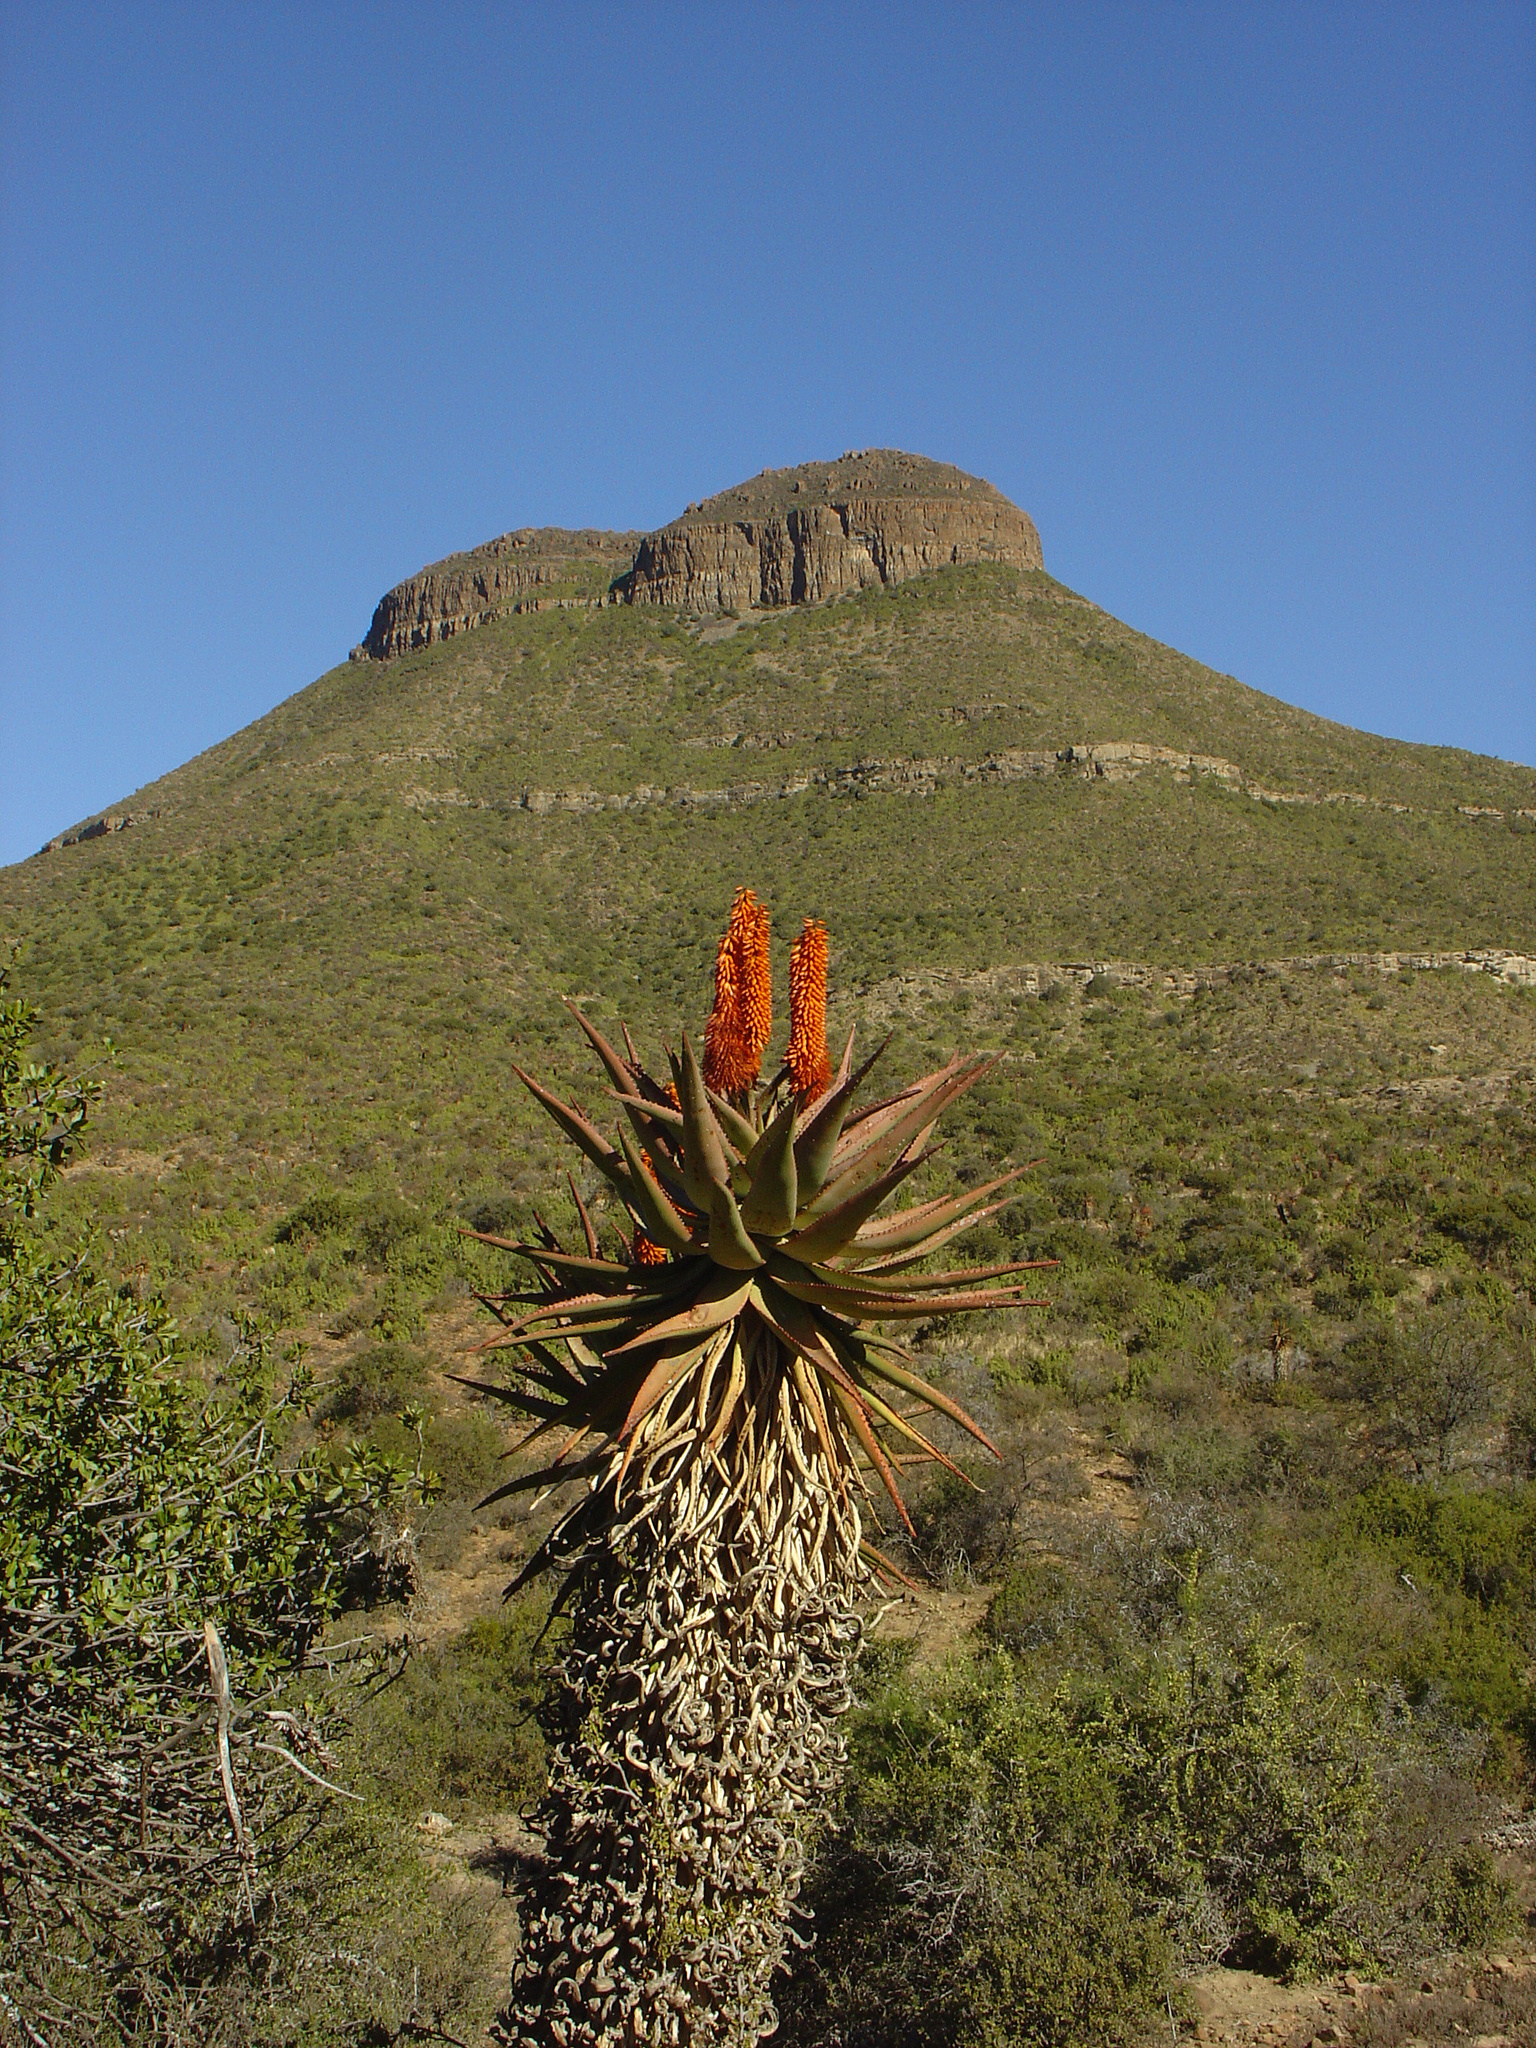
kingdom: Plantae
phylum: Tracheophyta
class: Liliopsida
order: Asparagales
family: Asphodelaceae
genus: Aloe
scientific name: Aloe ferox
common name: Bitter aloe
